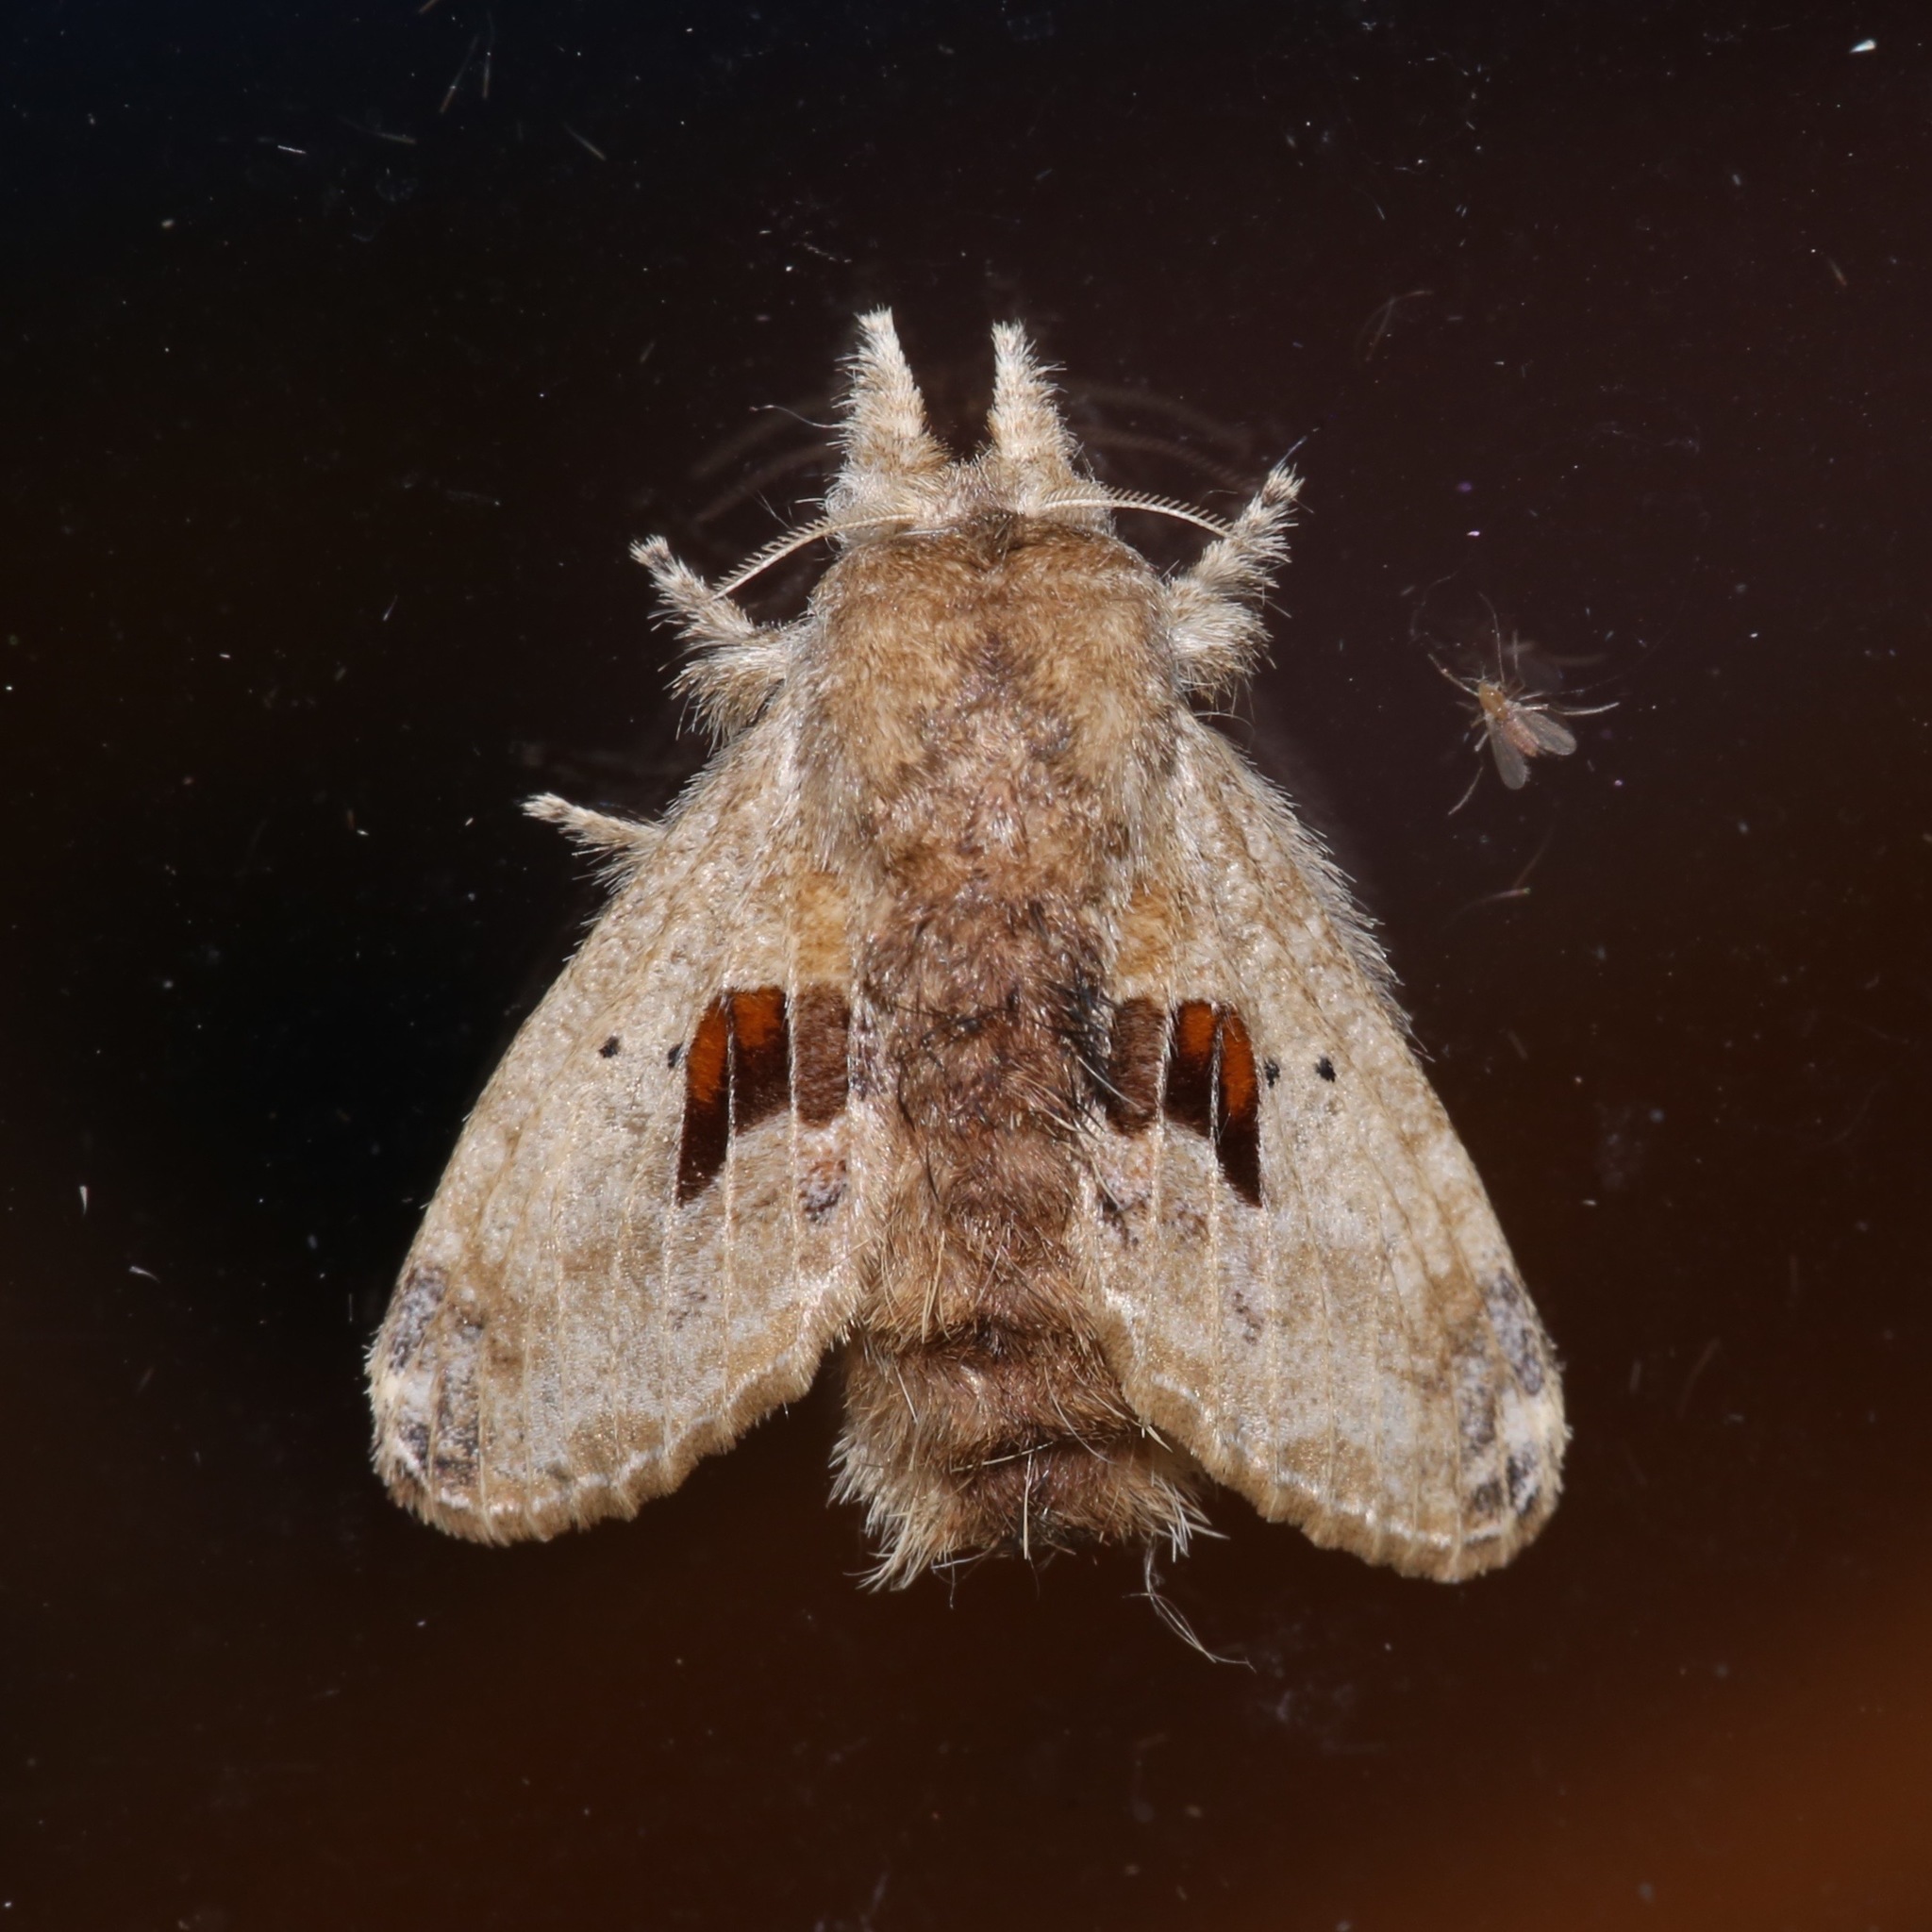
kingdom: Animalia
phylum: Arthropoda
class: Insecta
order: Lepidoptera
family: Lasiocampidae
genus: Tolype
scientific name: Tolype nana
